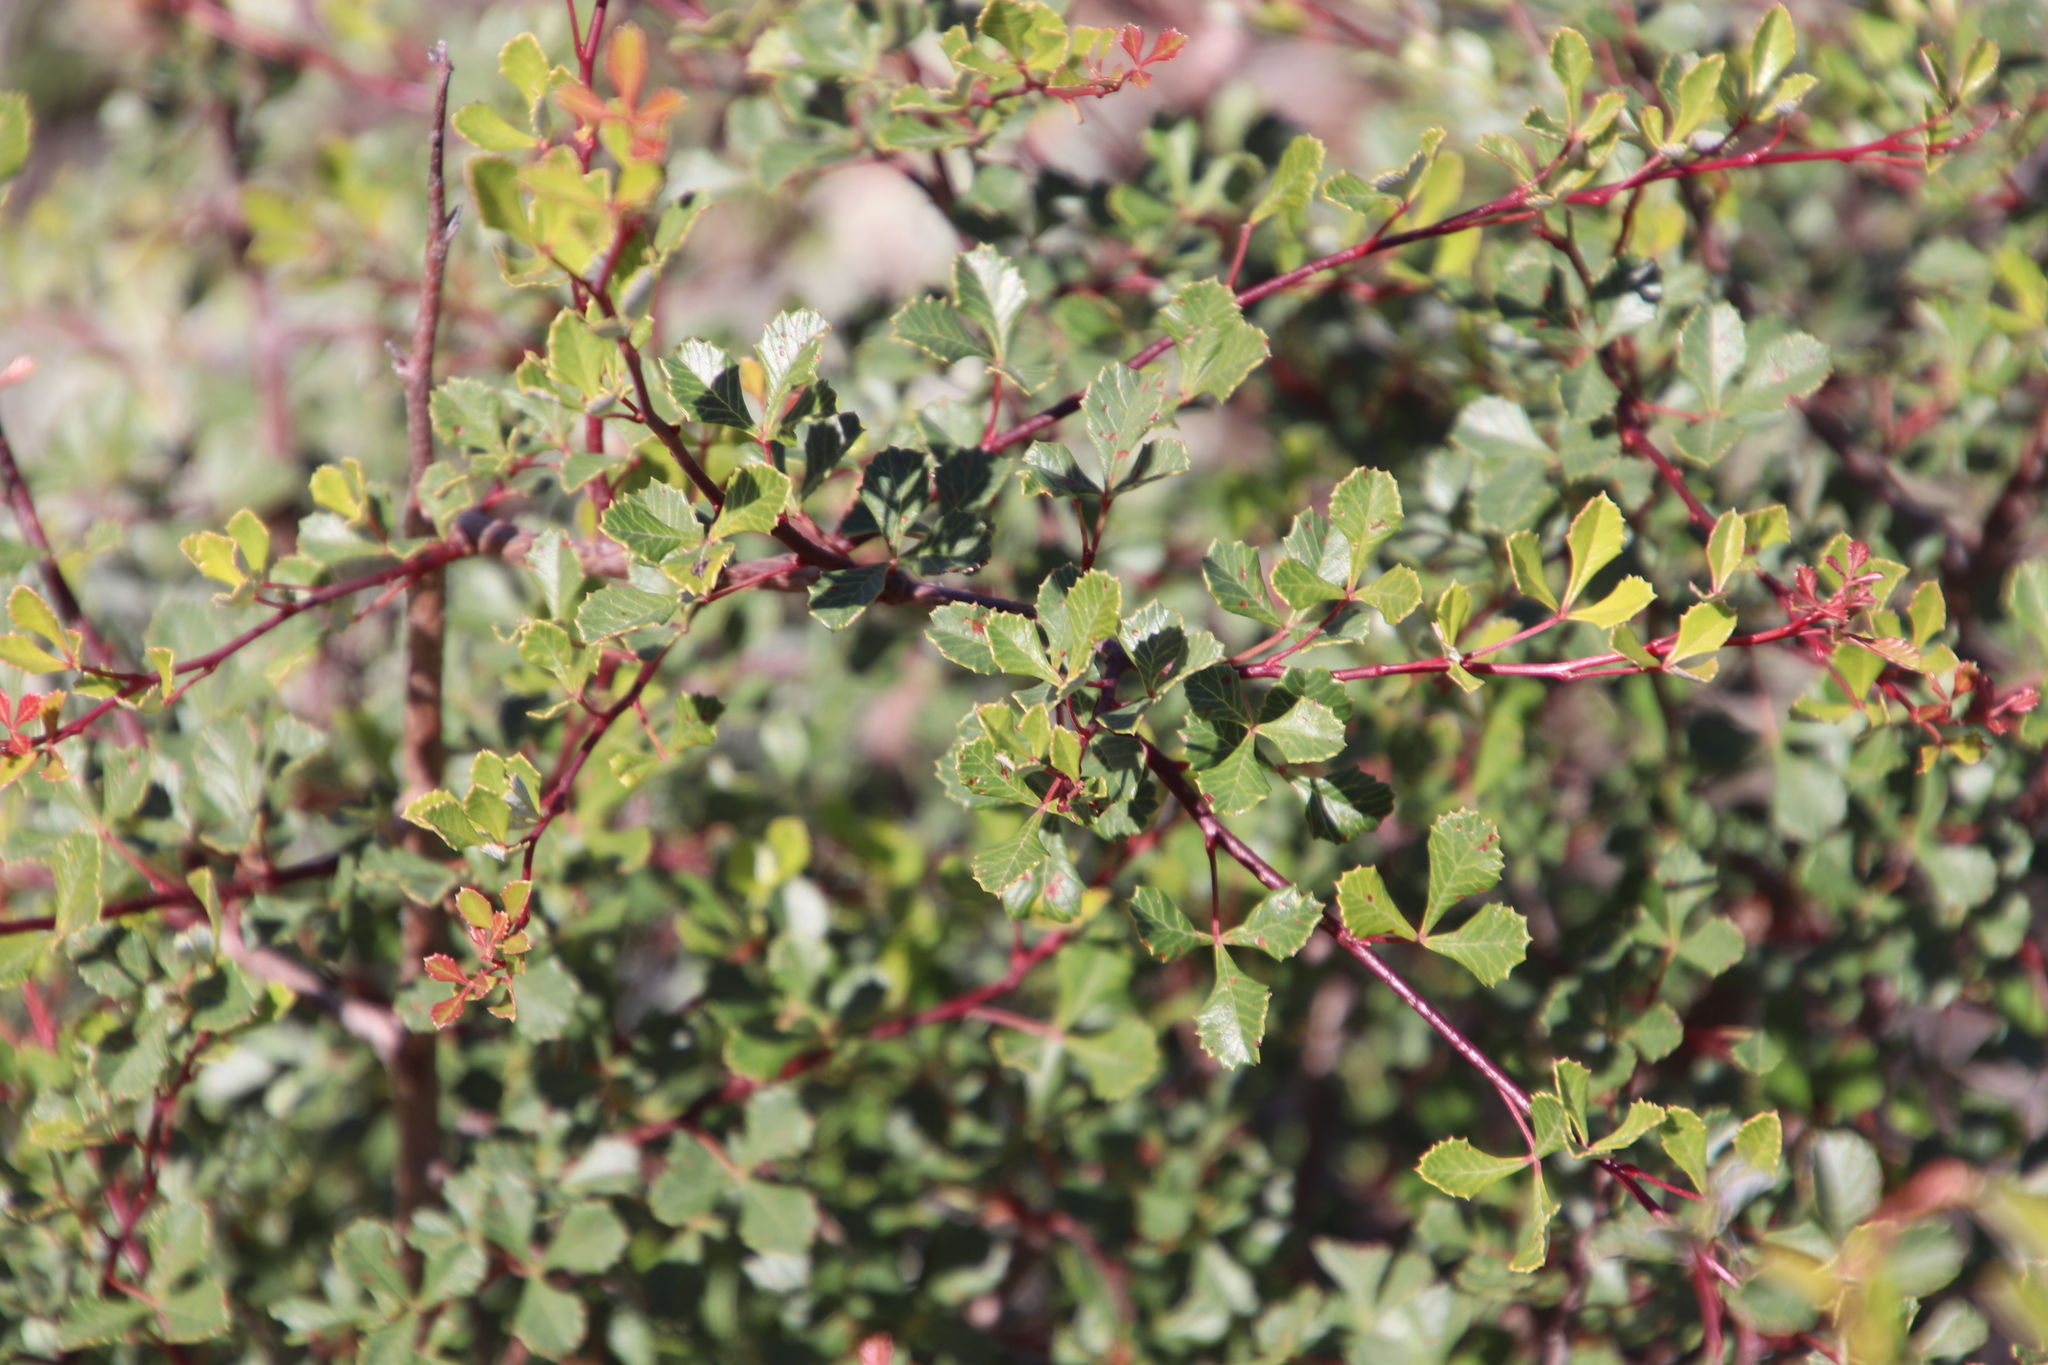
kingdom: Plantae
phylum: Tracheophyta
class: Magnoliopsida
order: Sapindales
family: Anacardiaceae
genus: Searsia
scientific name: Searsia dissecta
